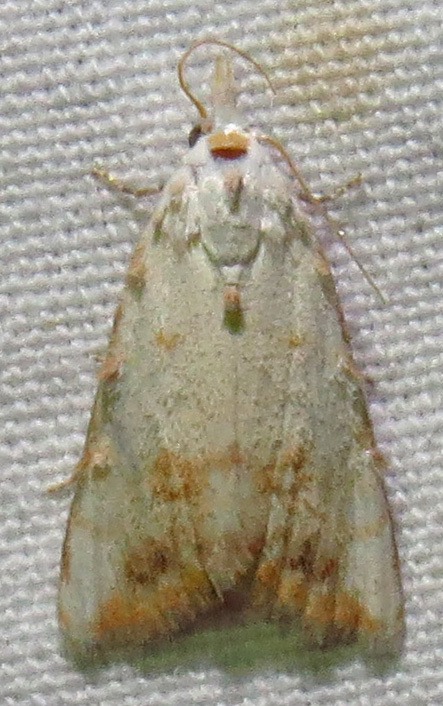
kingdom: Animalia
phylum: Arthropoda
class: Insecta
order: Lepidoptera
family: Nolidae
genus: Nola
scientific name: Nola cereella
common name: Sorghum webworm moth
